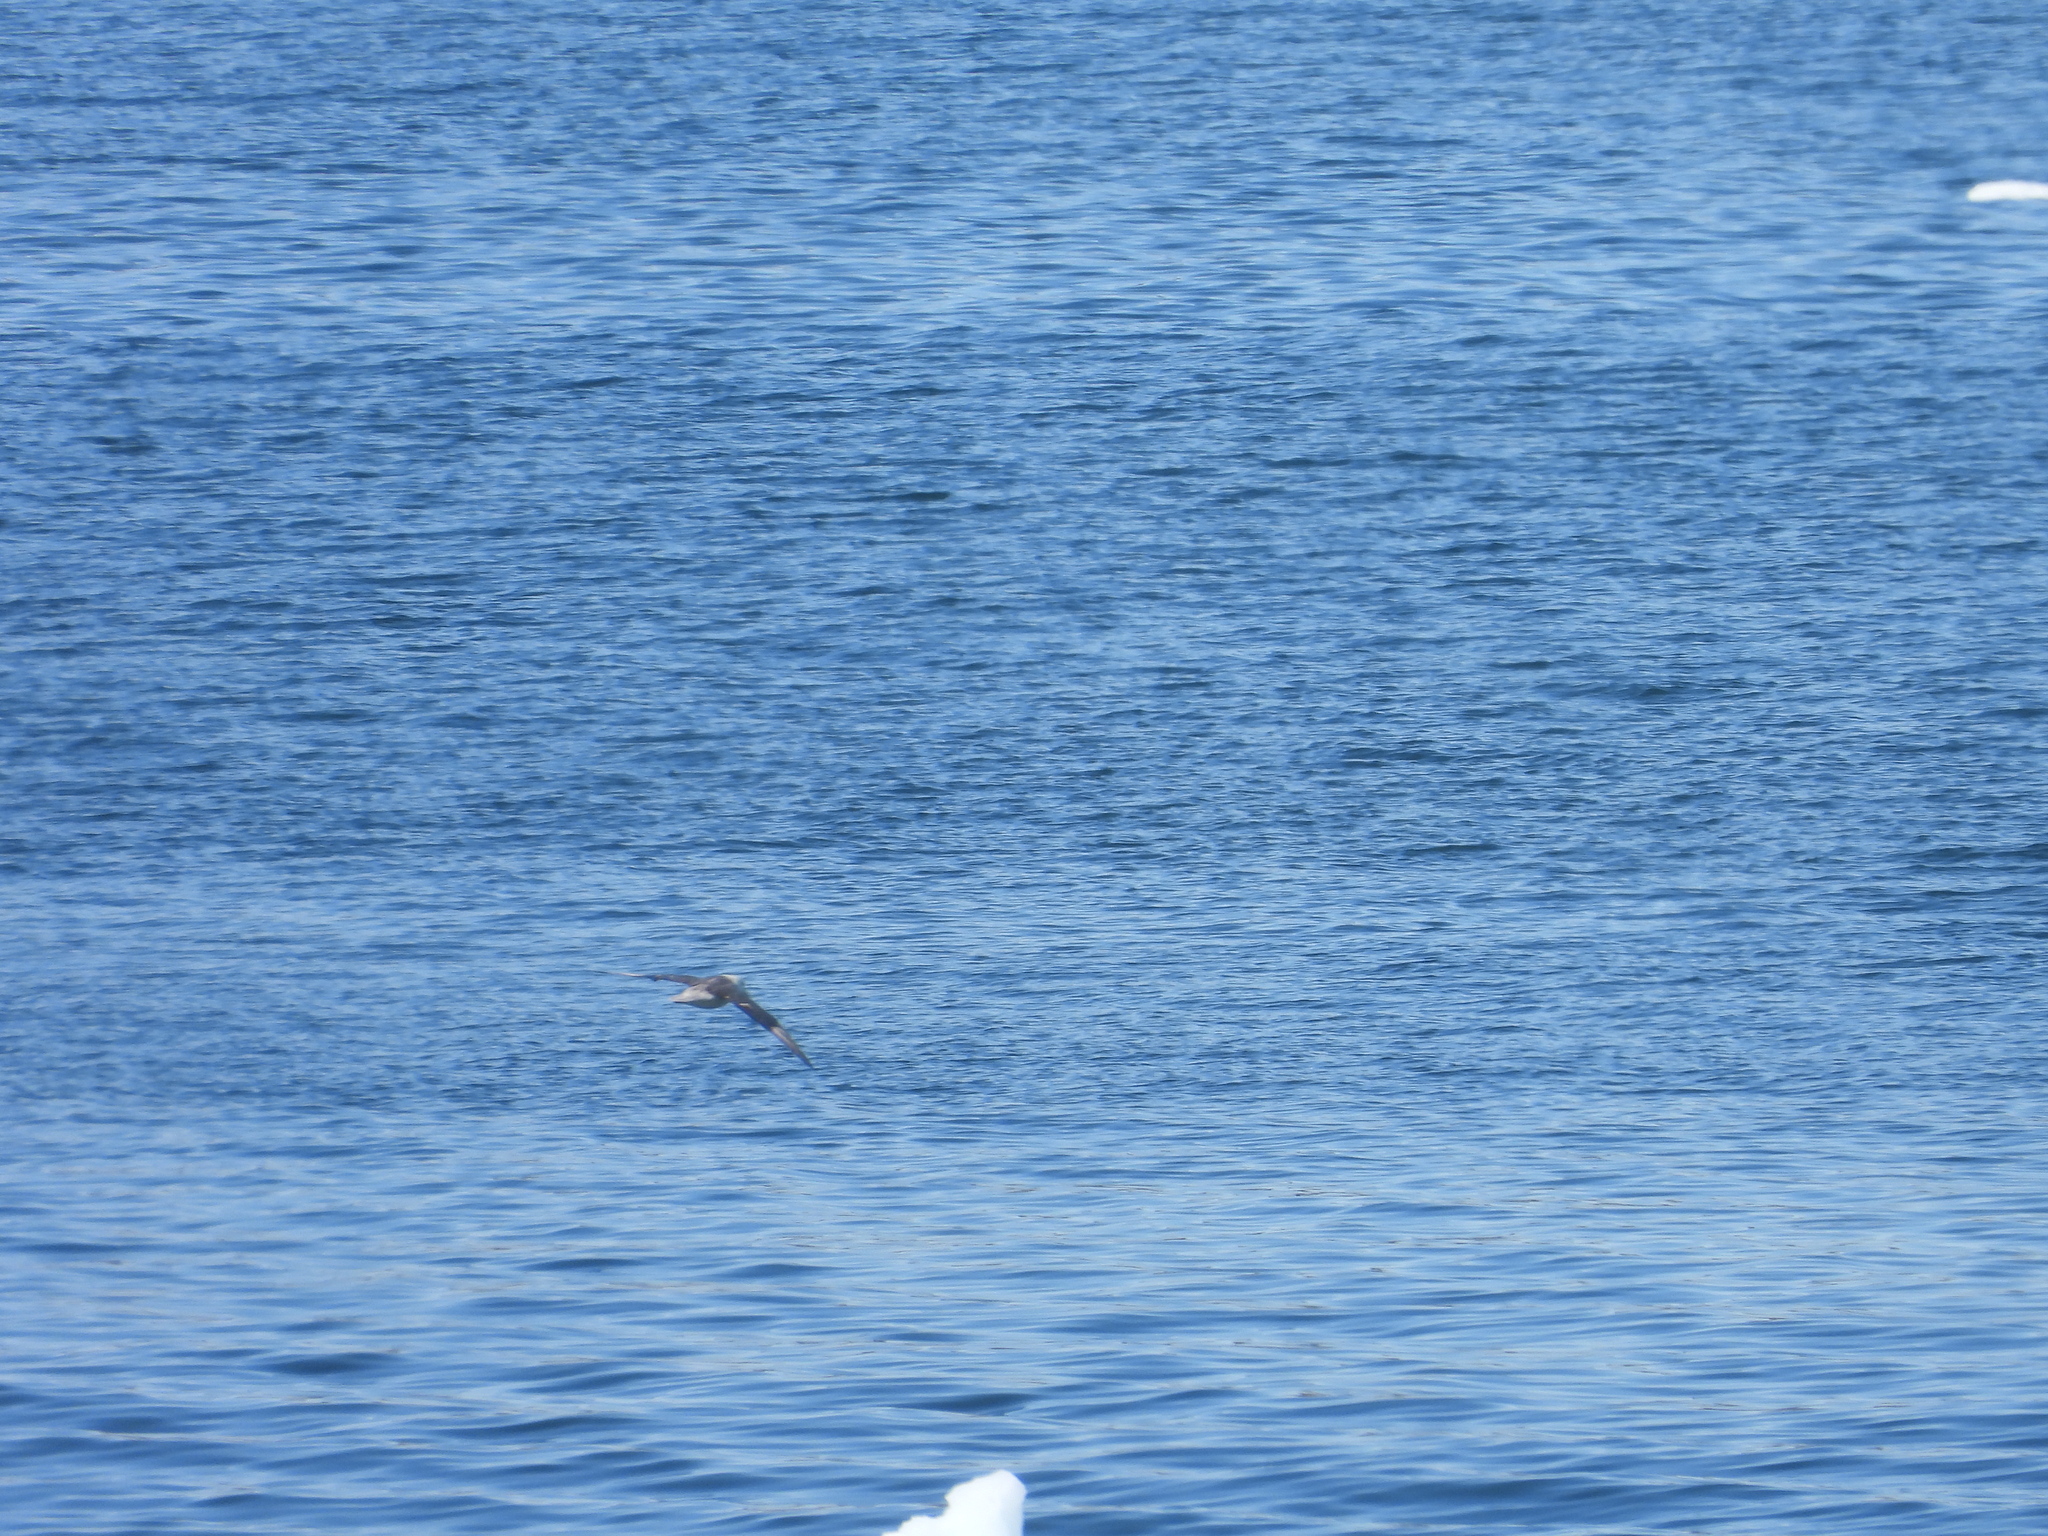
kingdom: Animalia
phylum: Chordata
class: Aves
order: Procellariiformes
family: Procellariidae
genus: Fulmarus
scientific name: Fulmarus glacialis
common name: Northern fulmar
